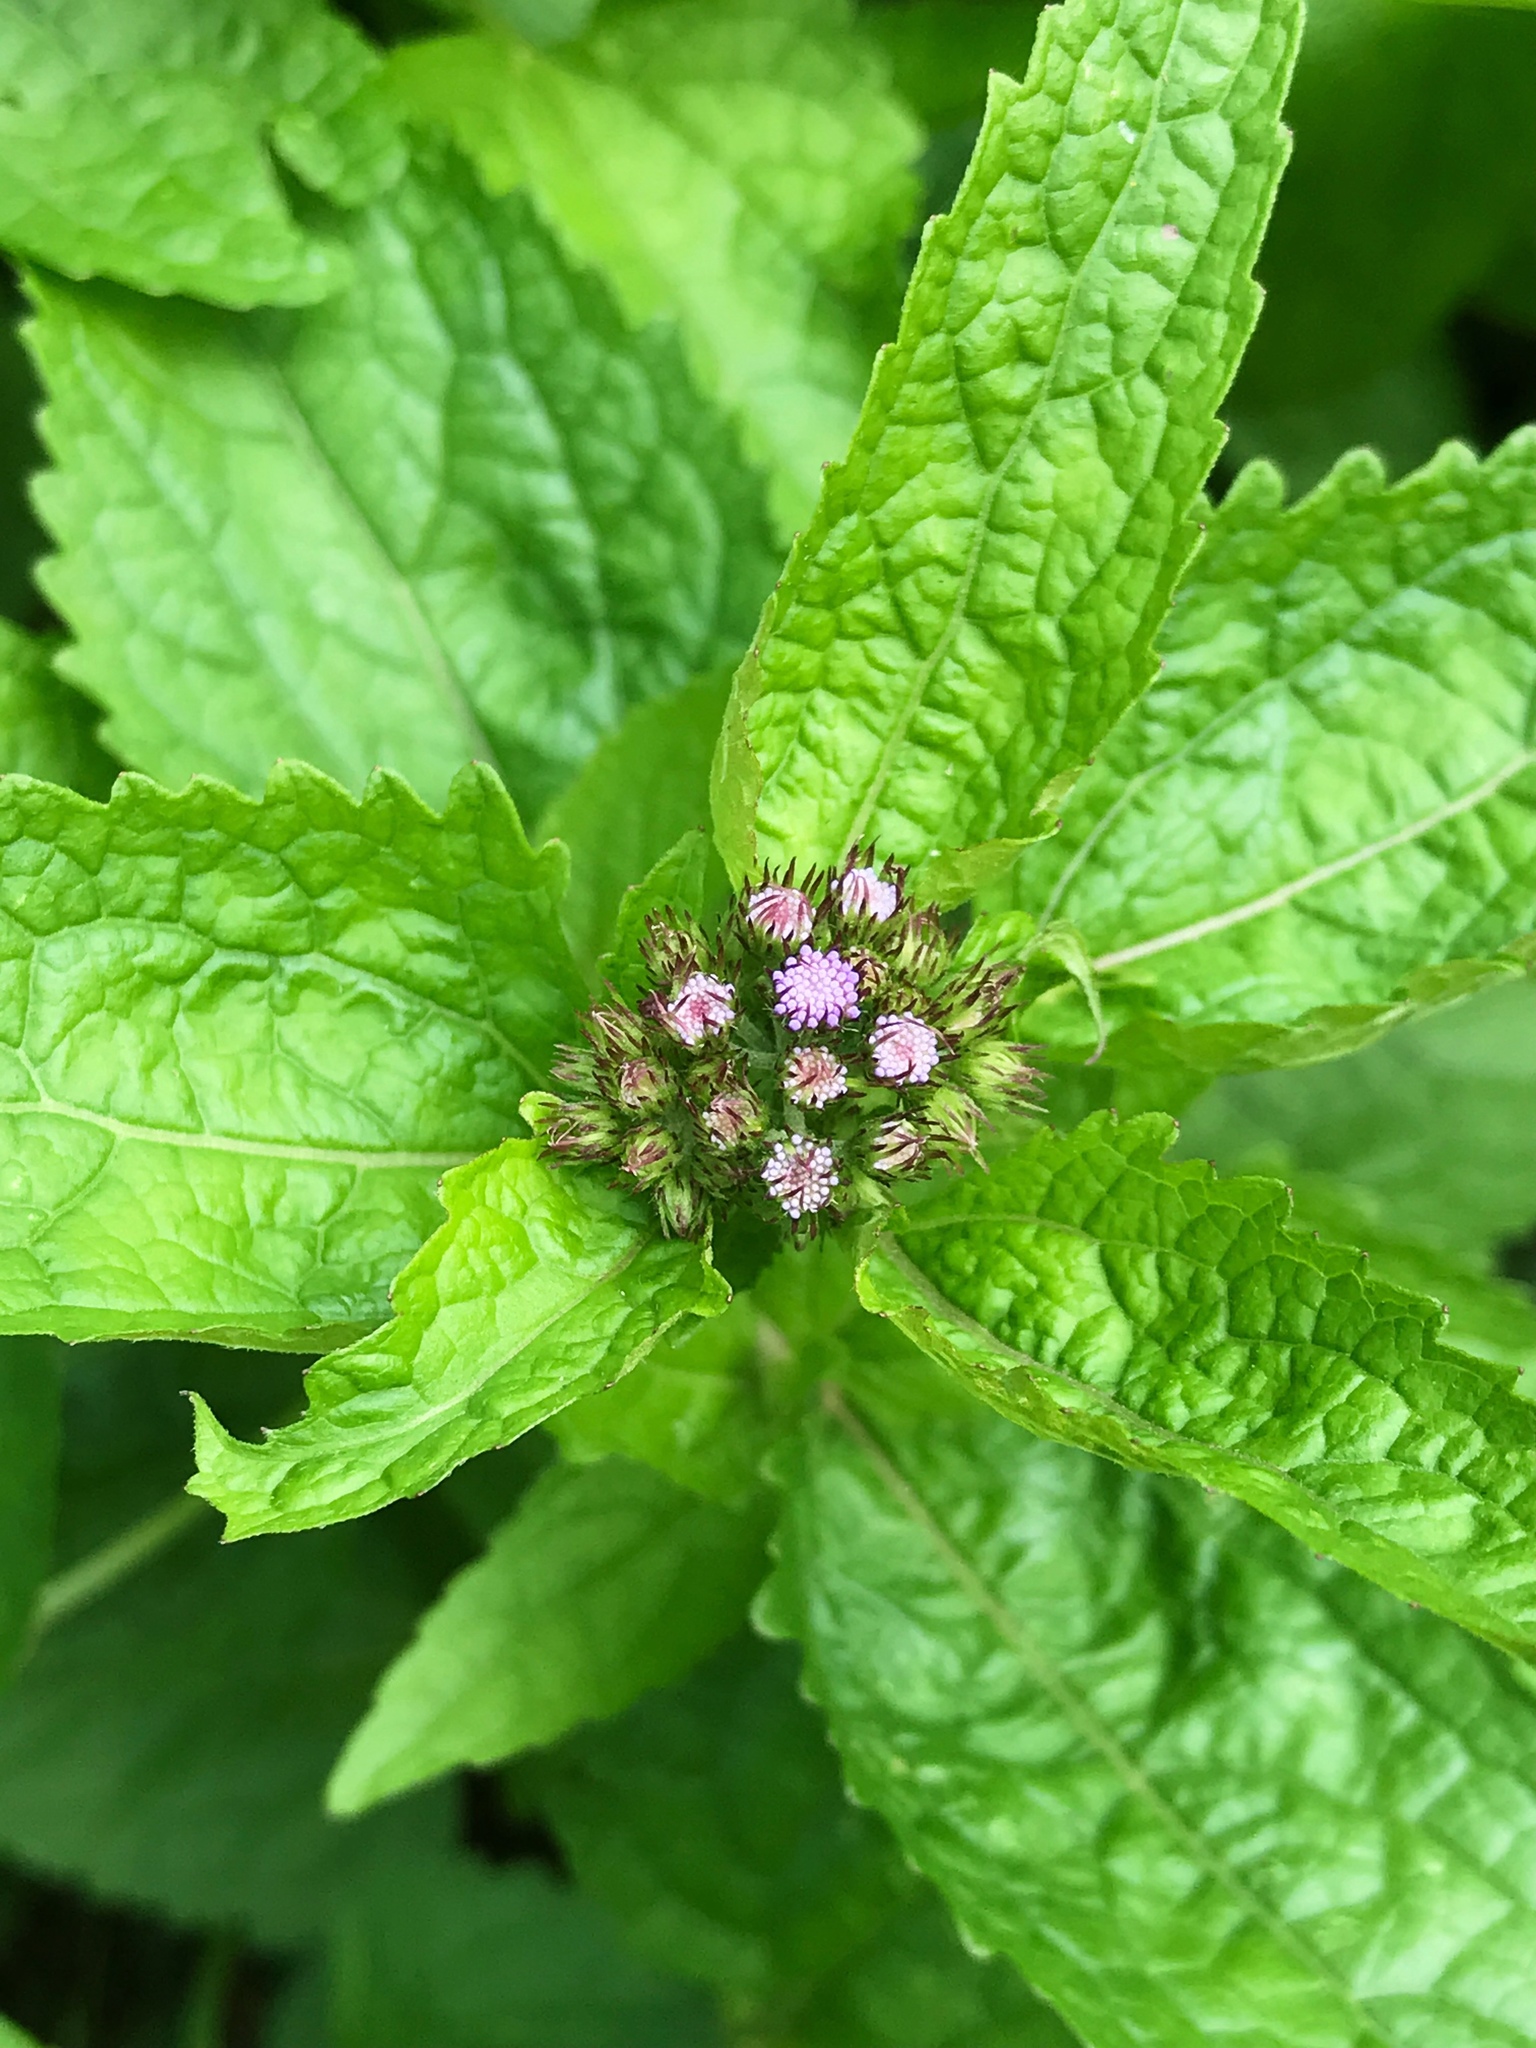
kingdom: Plantae
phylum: Tracheophyta
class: Magnoliopsida
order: Asterales
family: Asteraceae
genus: Conoclinium
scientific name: Conoclinium coelestinum
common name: Blue mistflower
